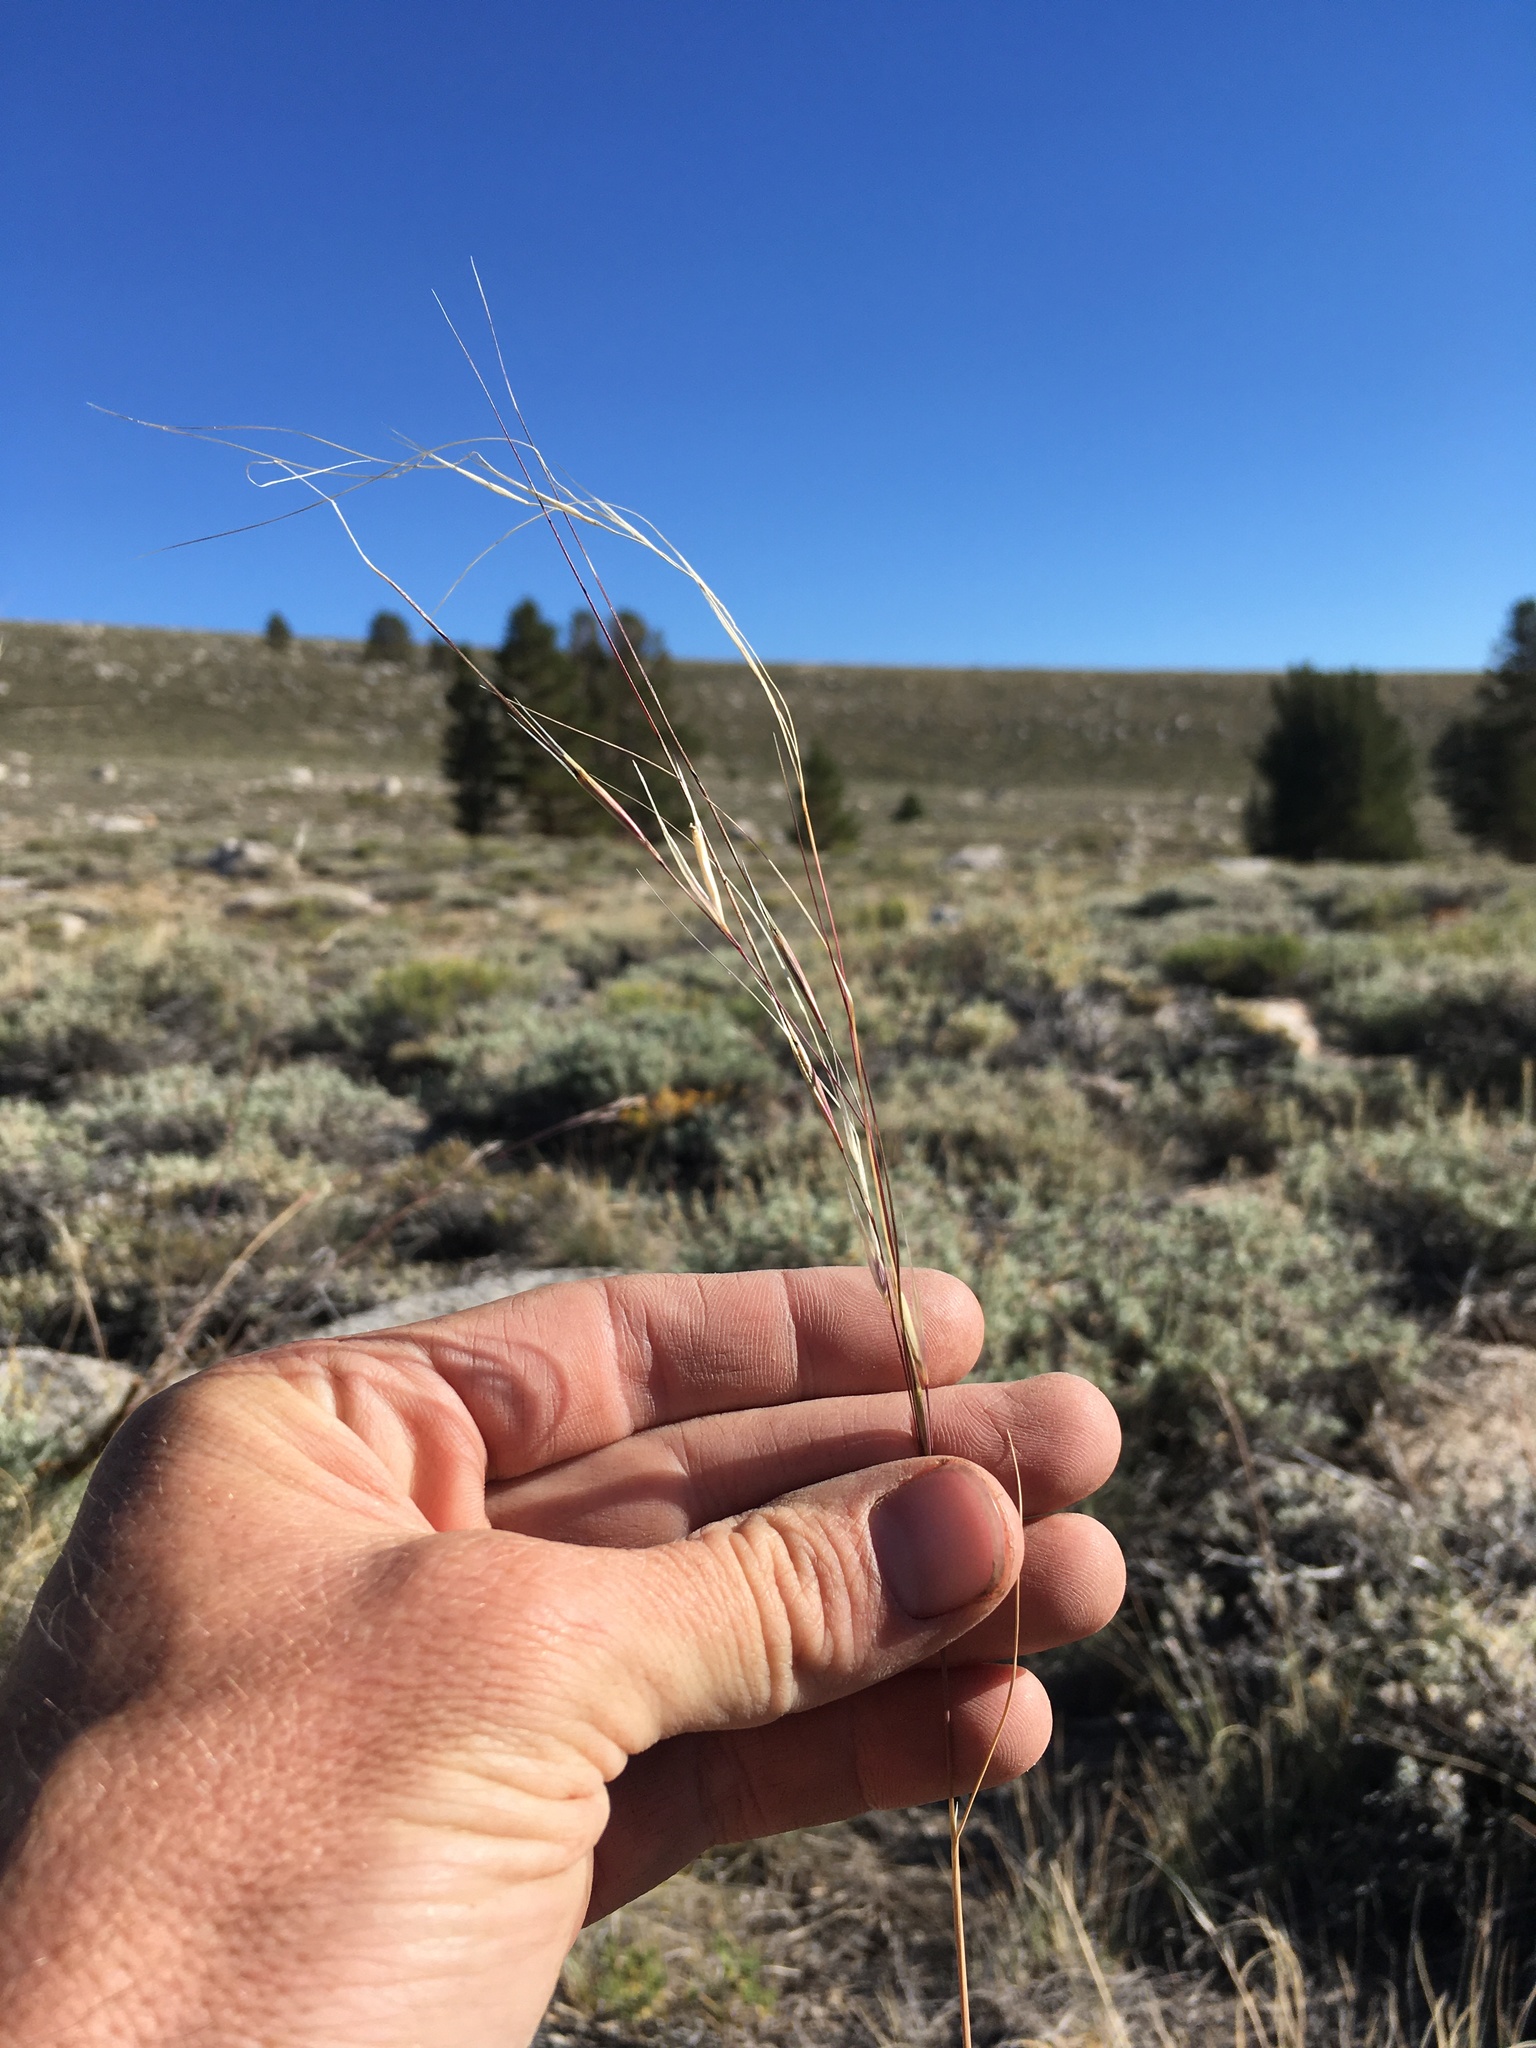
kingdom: Plantae
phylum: Tracheophyta
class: Liliopsida
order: Poales
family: Poaceae
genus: Hesperostipa
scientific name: Hesperostipa comata
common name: Needle-and-thread grass
